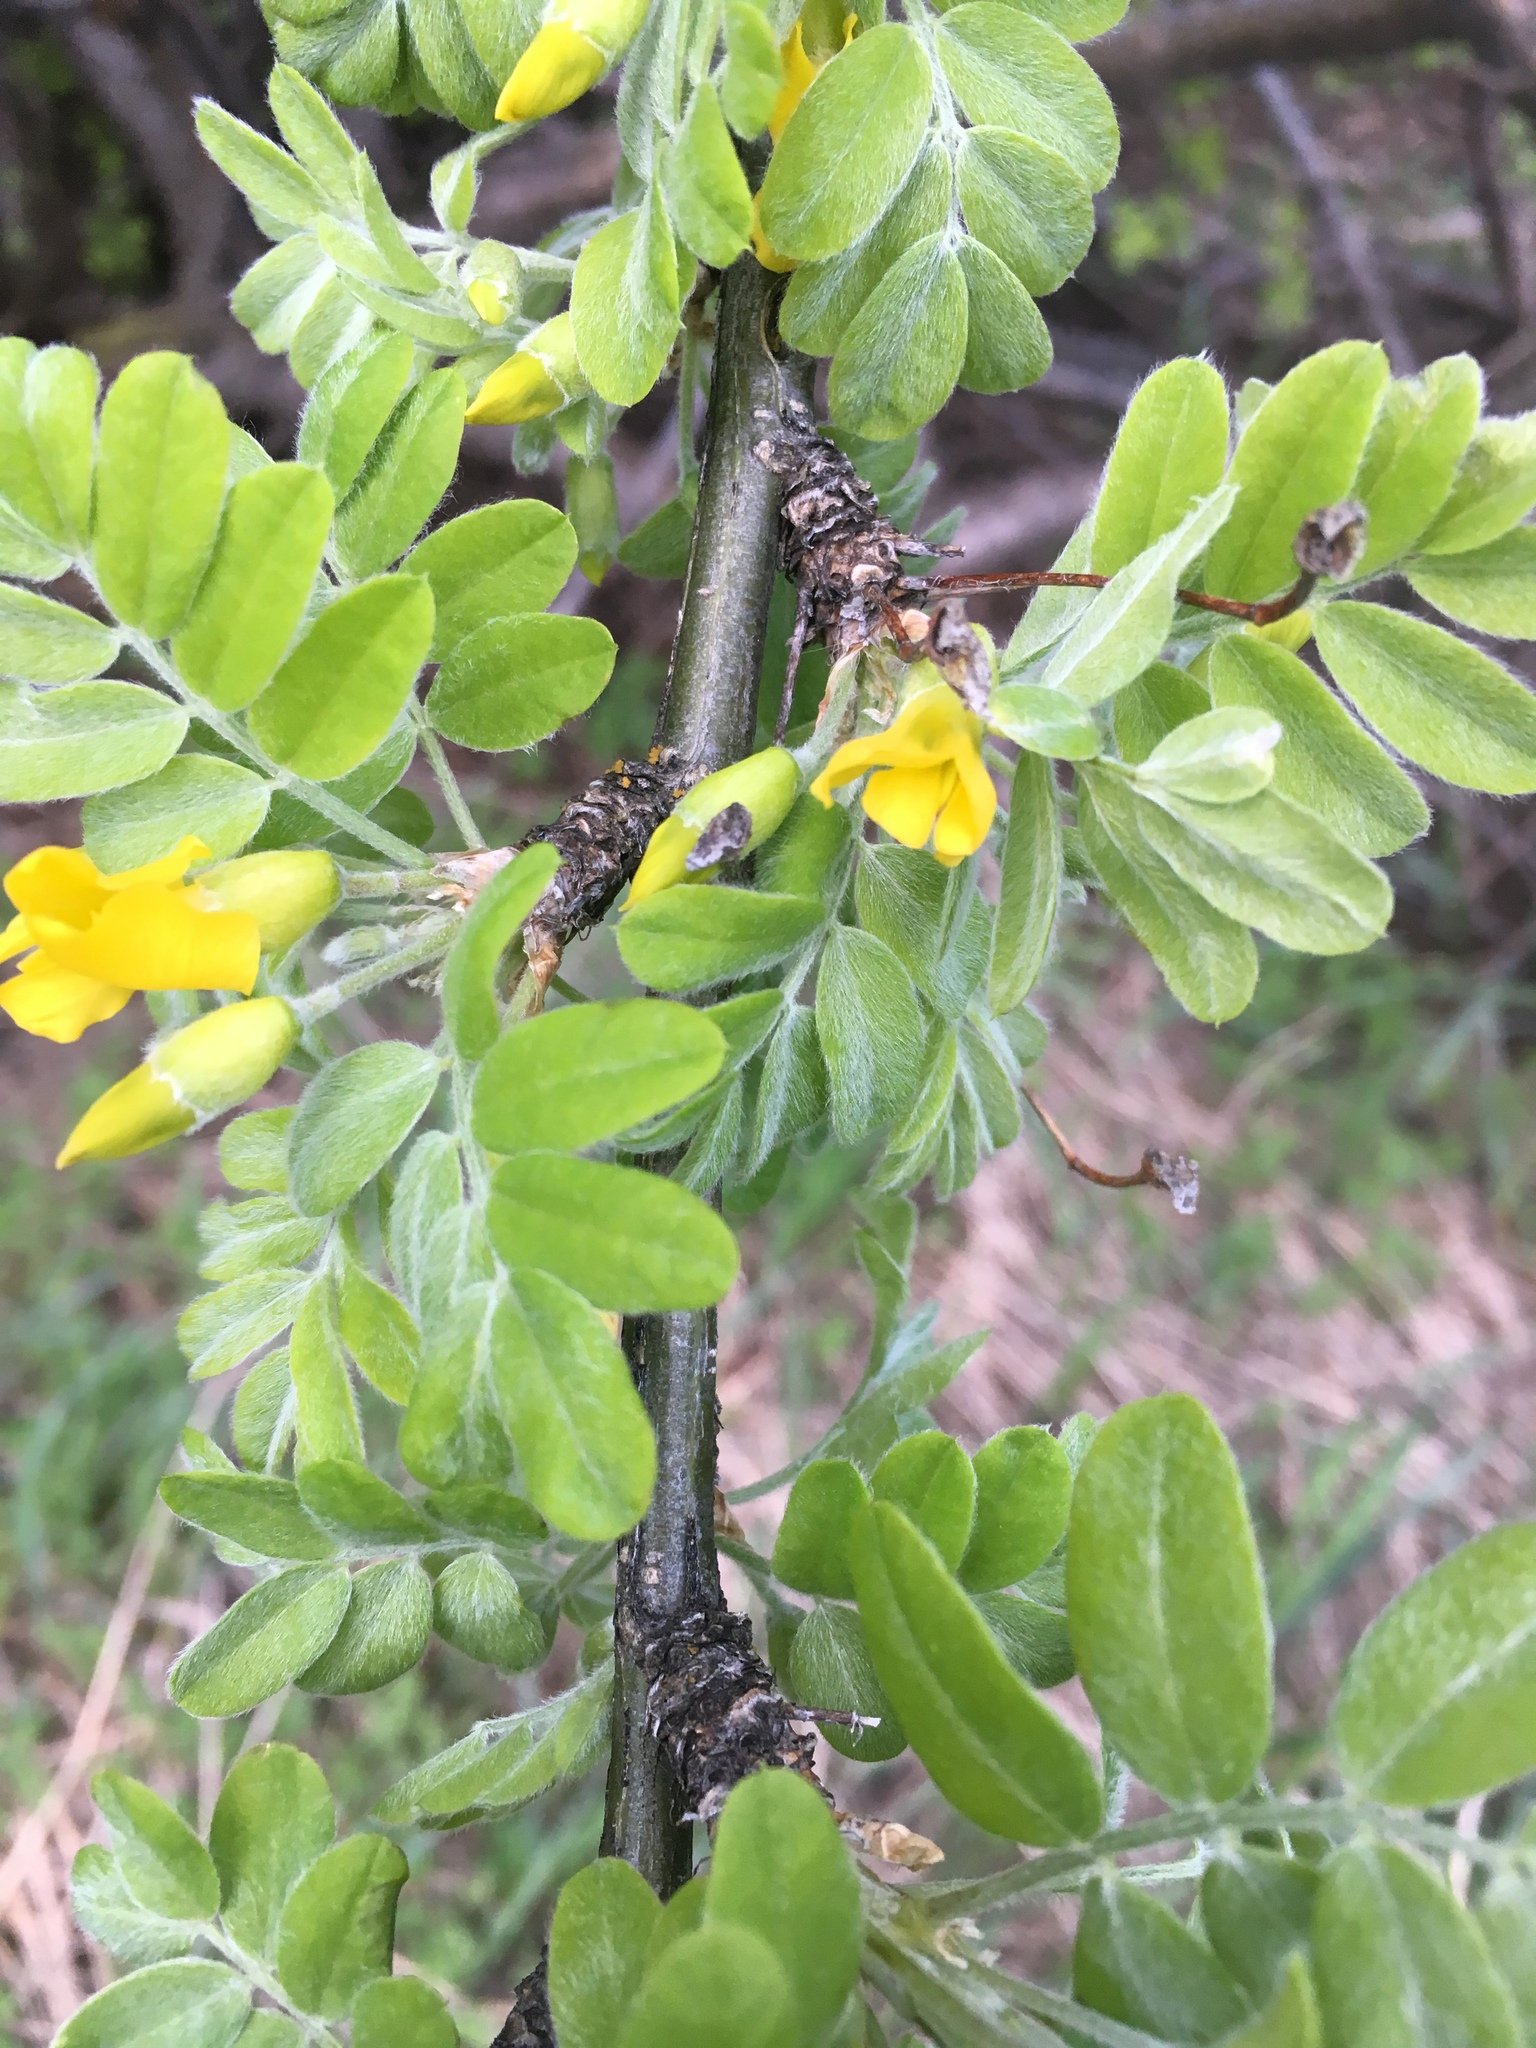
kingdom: Plantae
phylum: Tracheophyta
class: Magnoliopsida
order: Fabales
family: Fabaceae
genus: Caragana
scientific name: Caragana arborescens
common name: Siberian peashrub
